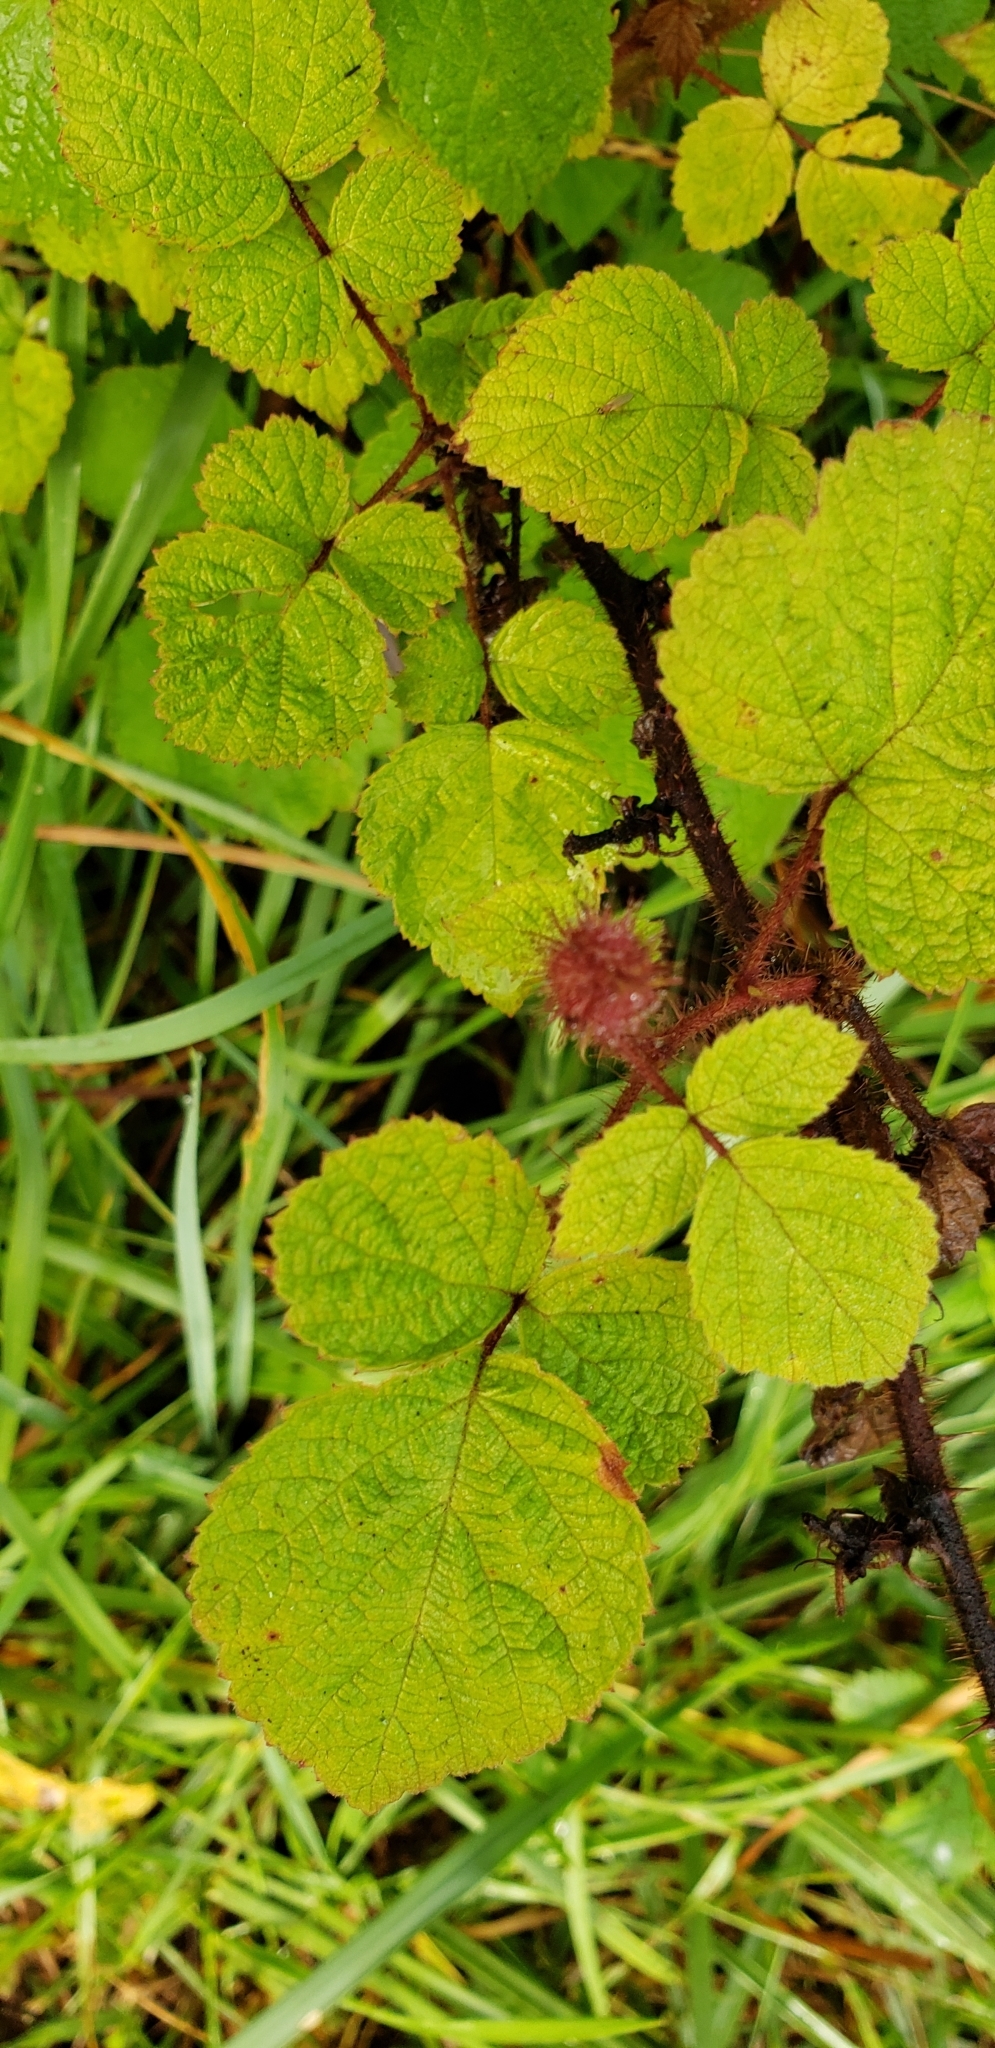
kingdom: Plantae
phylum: Tracheophyta
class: Magnoliopsida
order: Rosales
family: Rosaceae
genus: Rubus
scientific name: Rubus phoenicolasius
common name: Japanese wineberry
